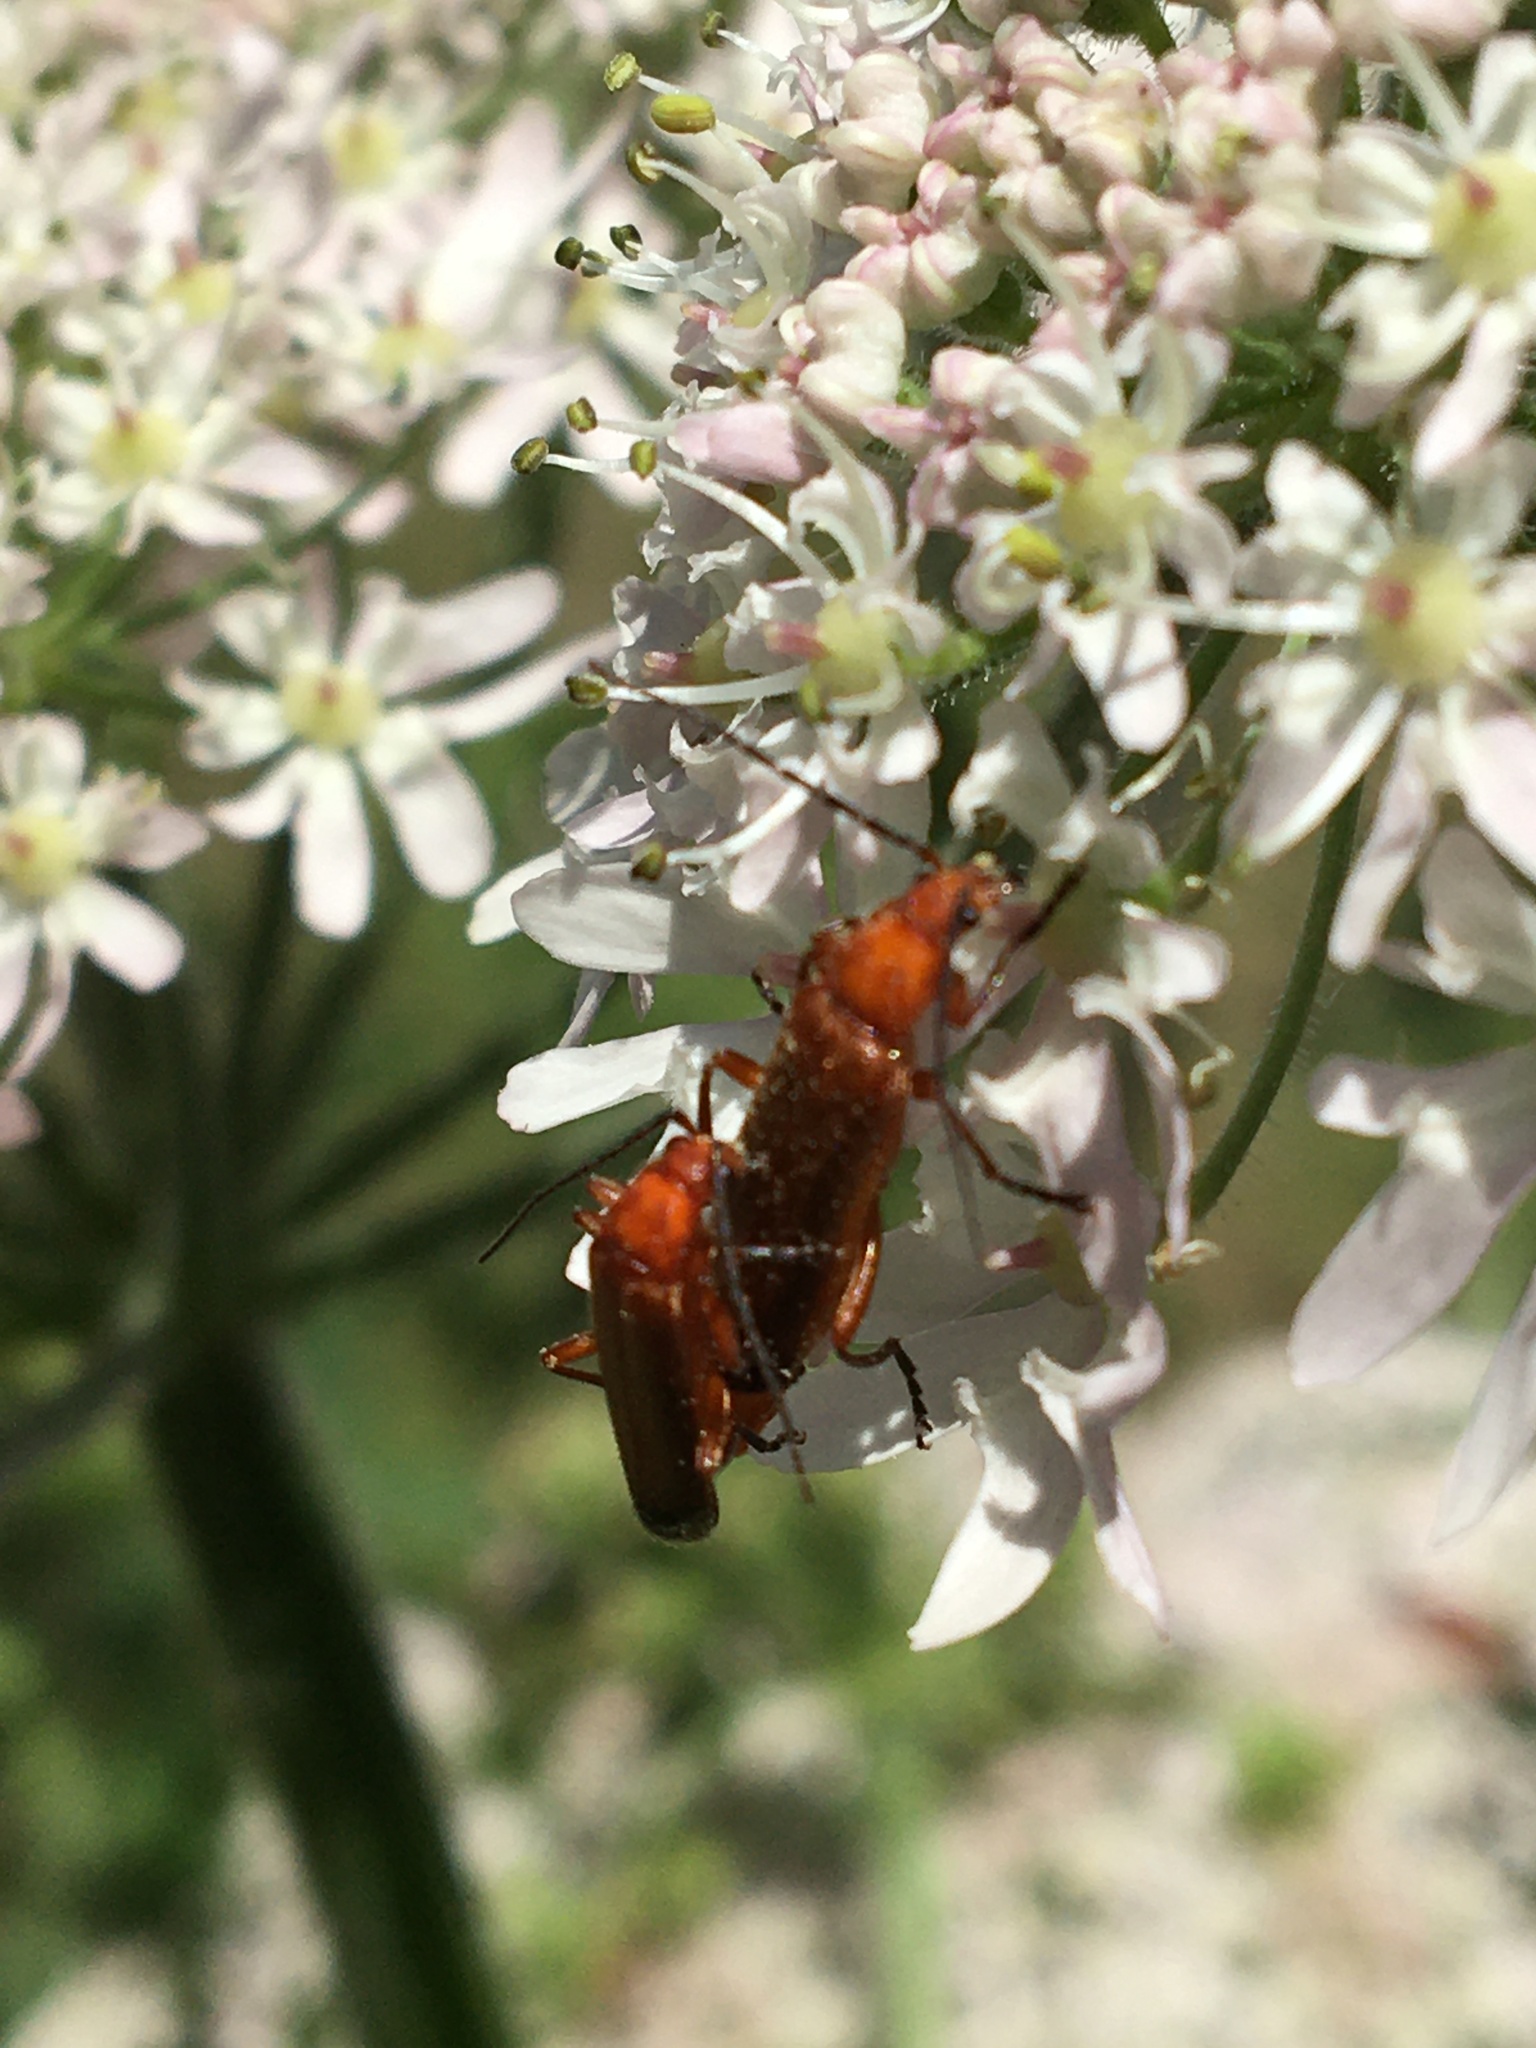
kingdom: Animalia
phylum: Arthropoda
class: Insecta
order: Coleoptera
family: Cantharidae
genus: Rhagonycha
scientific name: Rhagonycha fulva
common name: Common red soldier beetle
